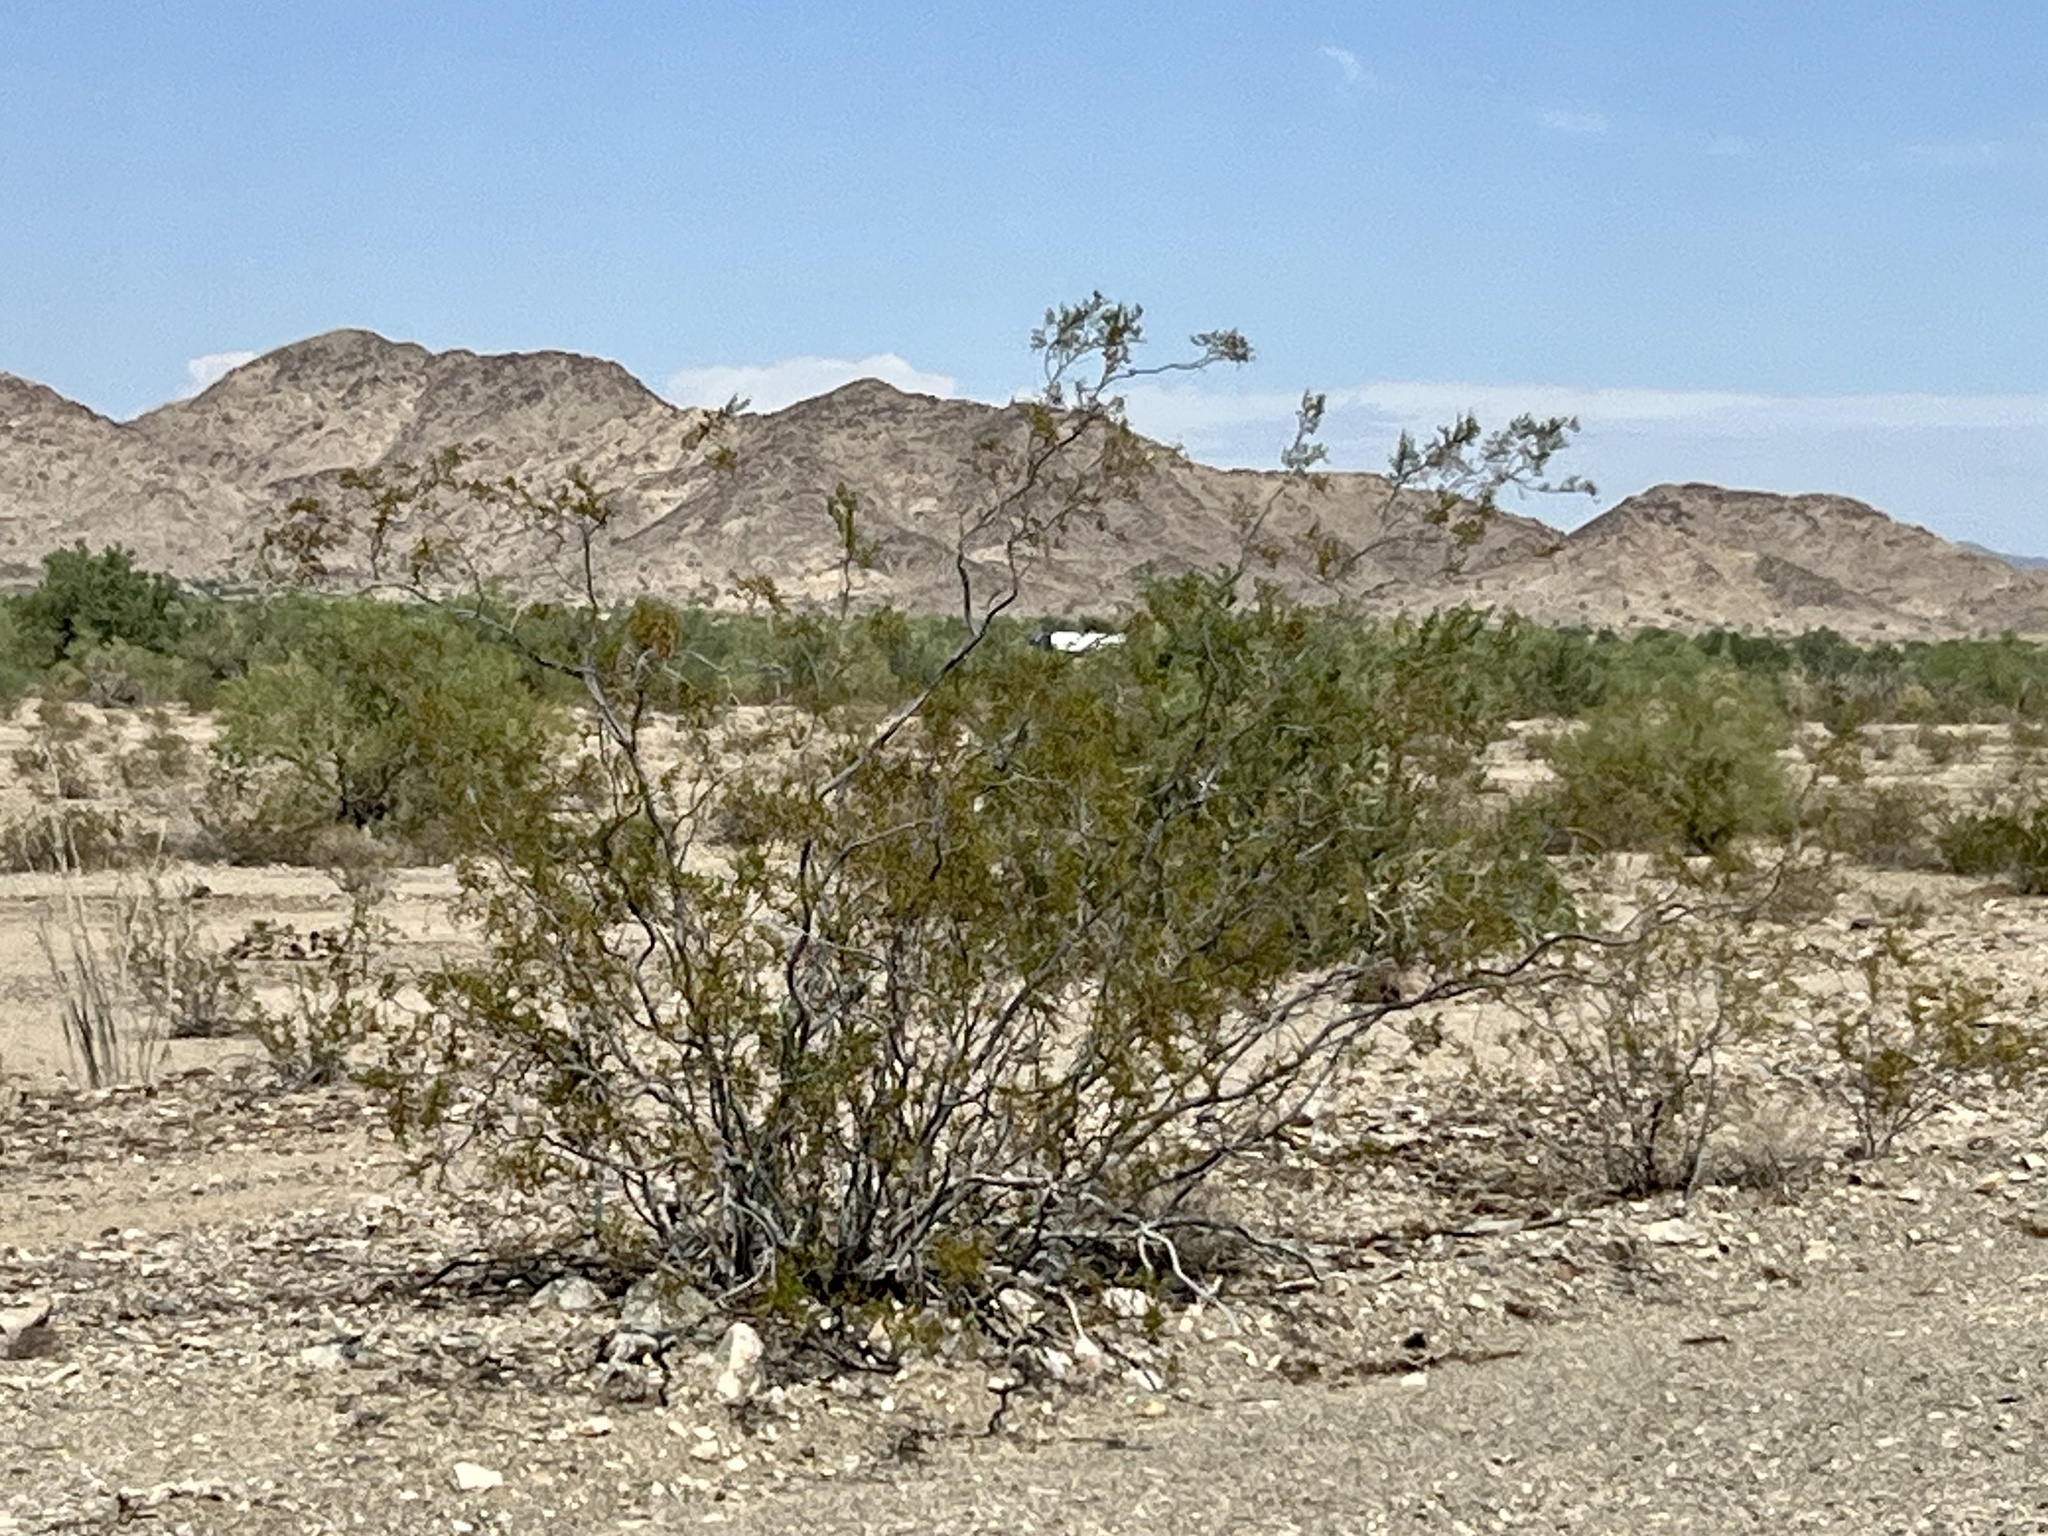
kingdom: Plantae
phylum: Tracheophyta
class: Magnoliopsida
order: Zygophyllales
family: Zygophyllaceae
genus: Larrea
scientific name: Larrea tridentata
